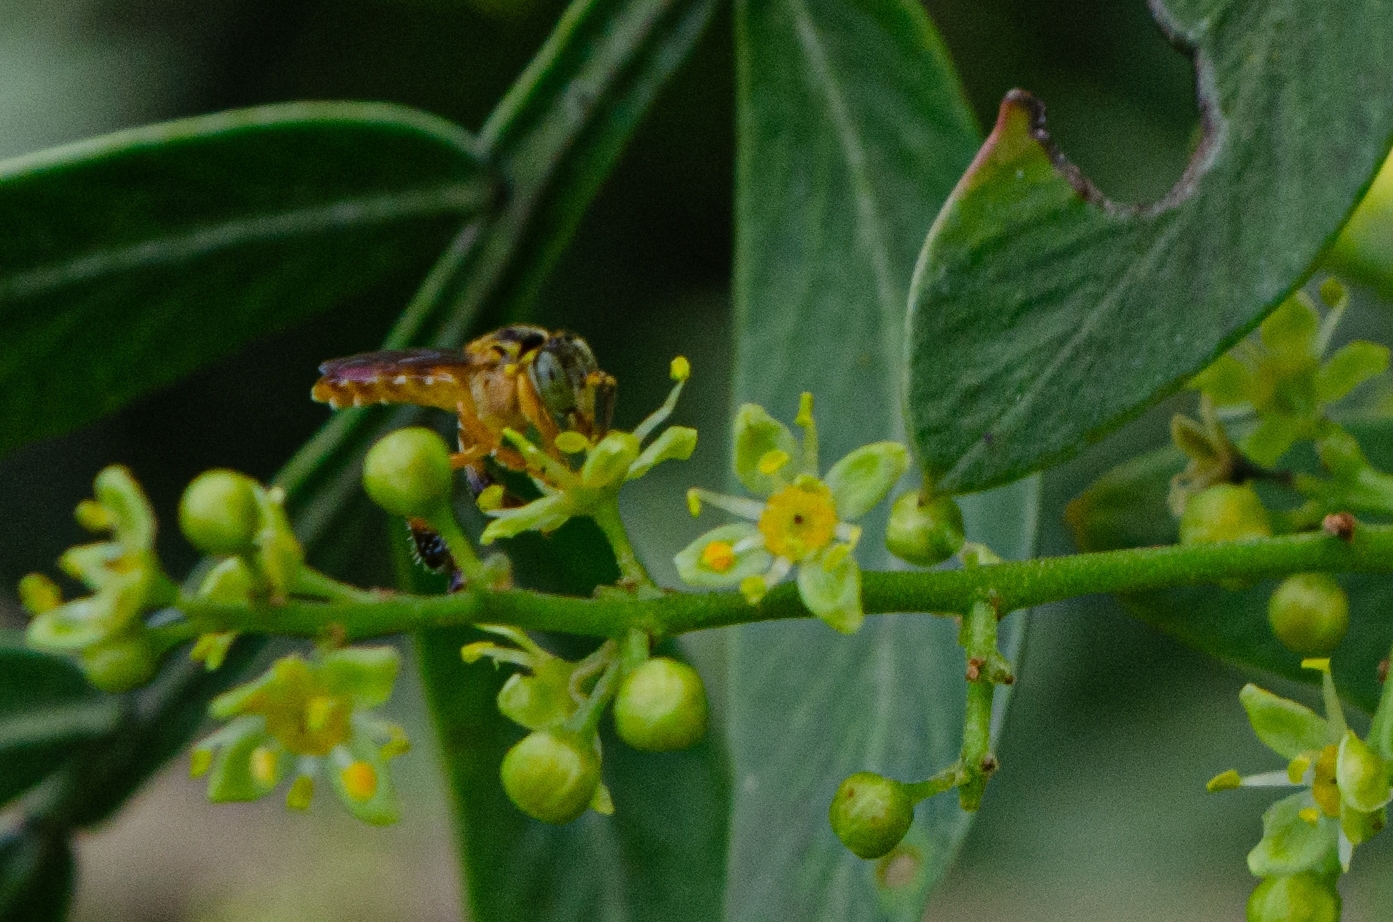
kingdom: Animalia
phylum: Arthropoda
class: Insecta
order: Hymenoptera
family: Apidae
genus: Tetragonisca
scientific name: Tetragonisca fiebrigi
